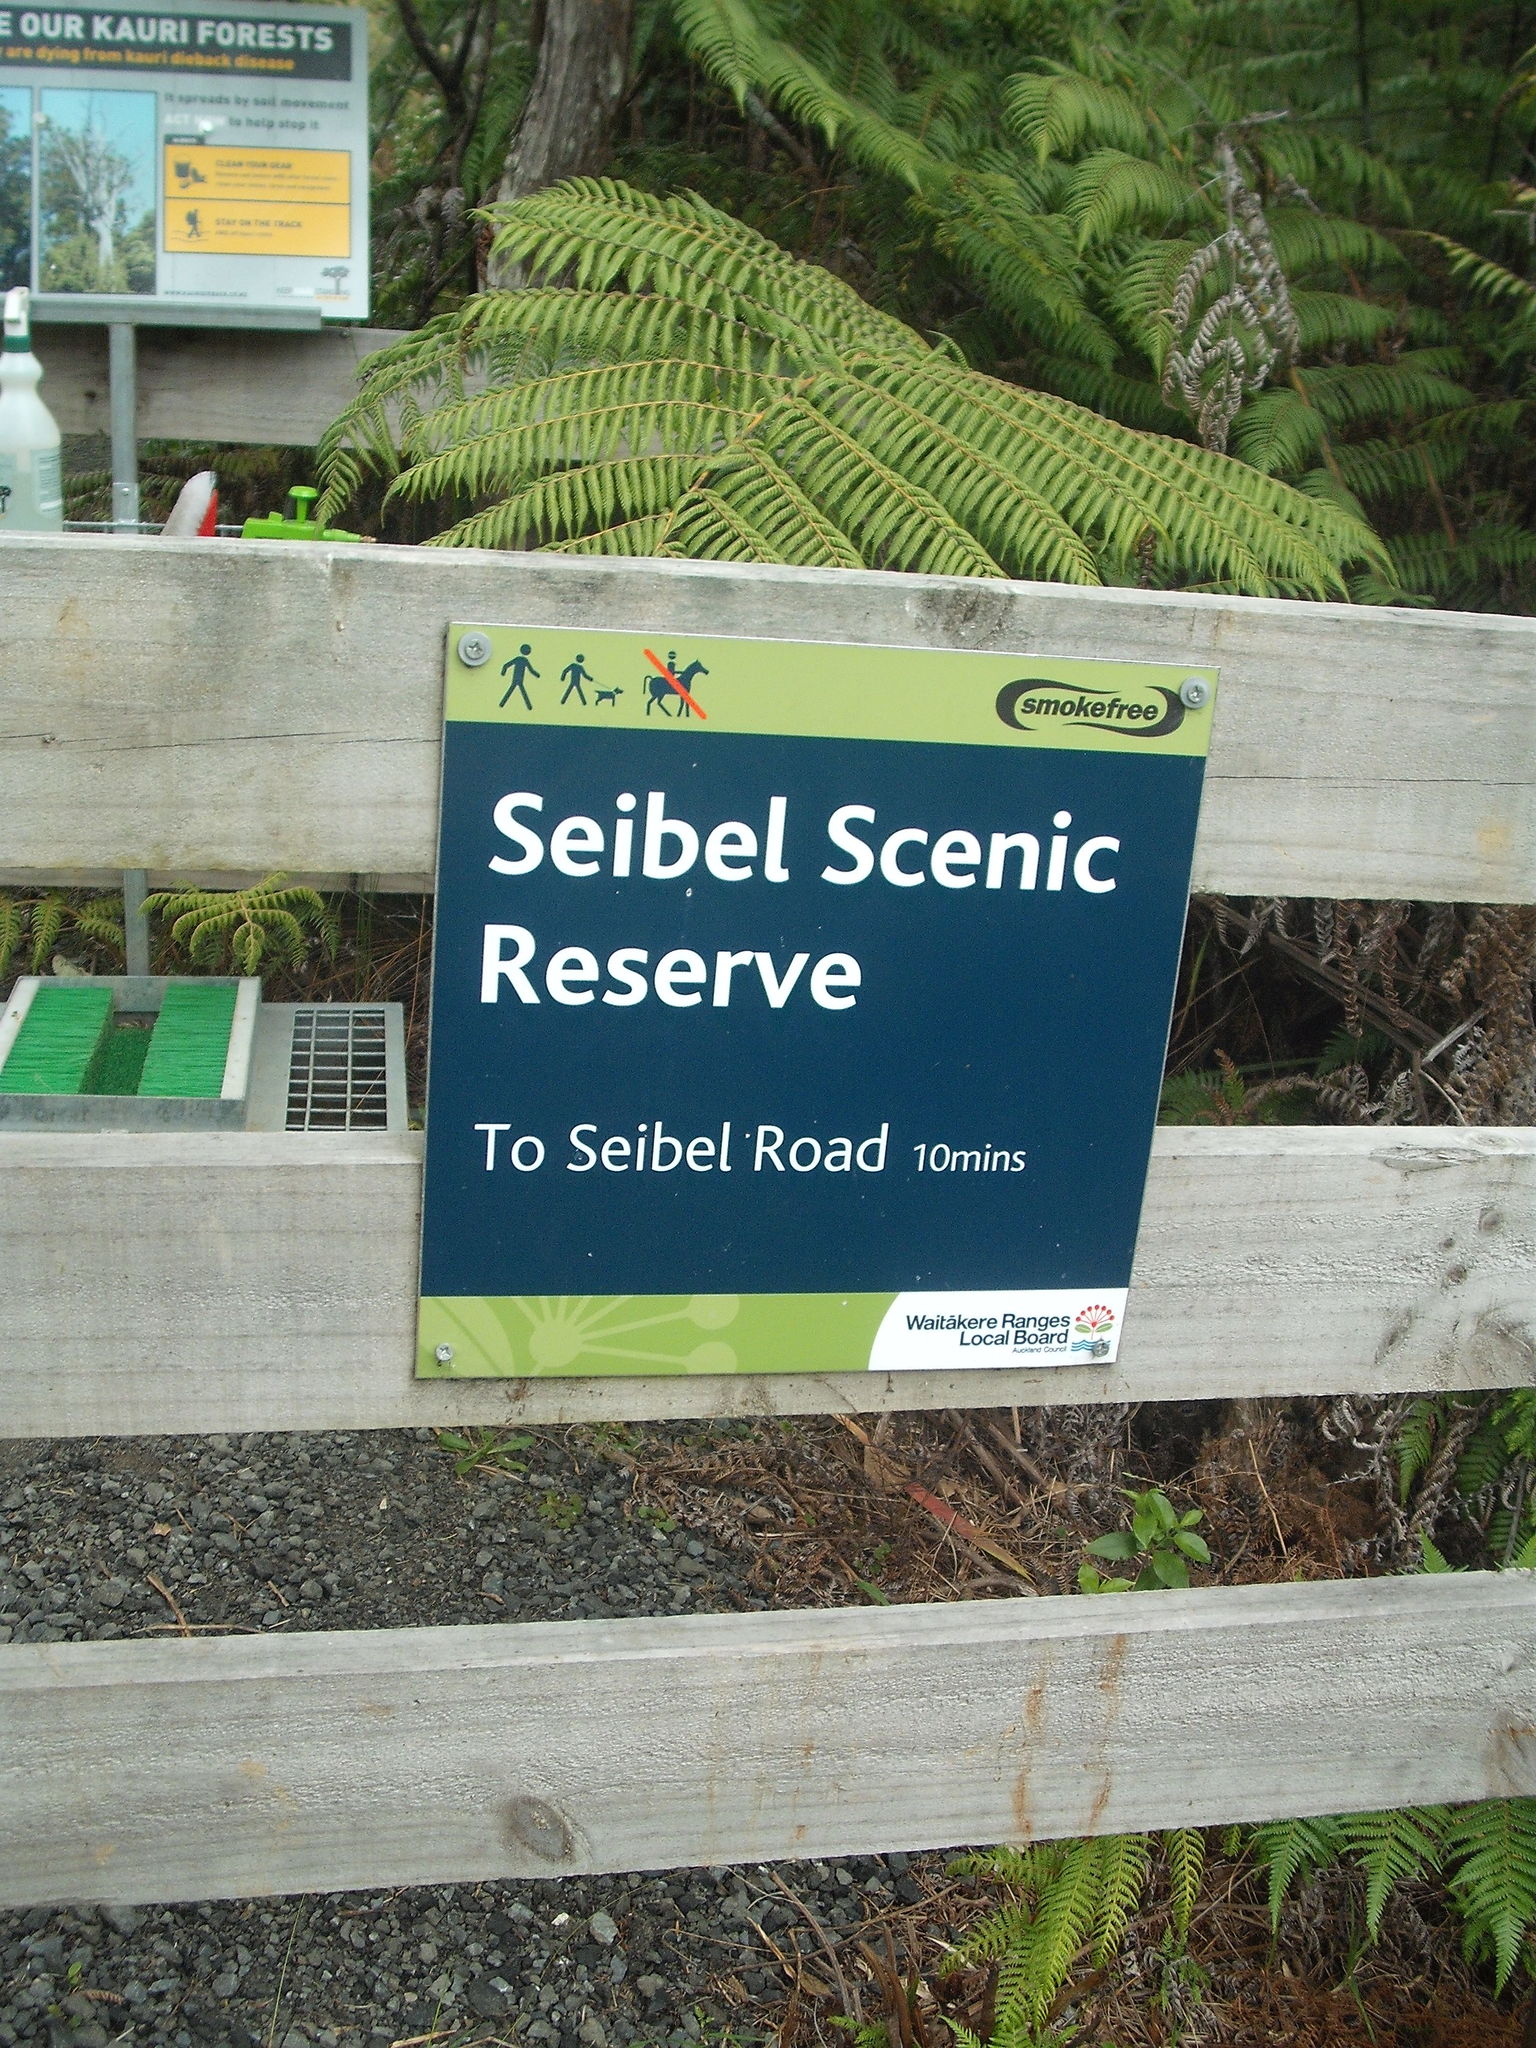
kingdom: Plantae
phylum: Tracheophyta
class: Polypodiopsida
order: Polypodiales
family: Blechnaceae
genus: Diploblechnum
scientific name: Diploblechnum fraseri
